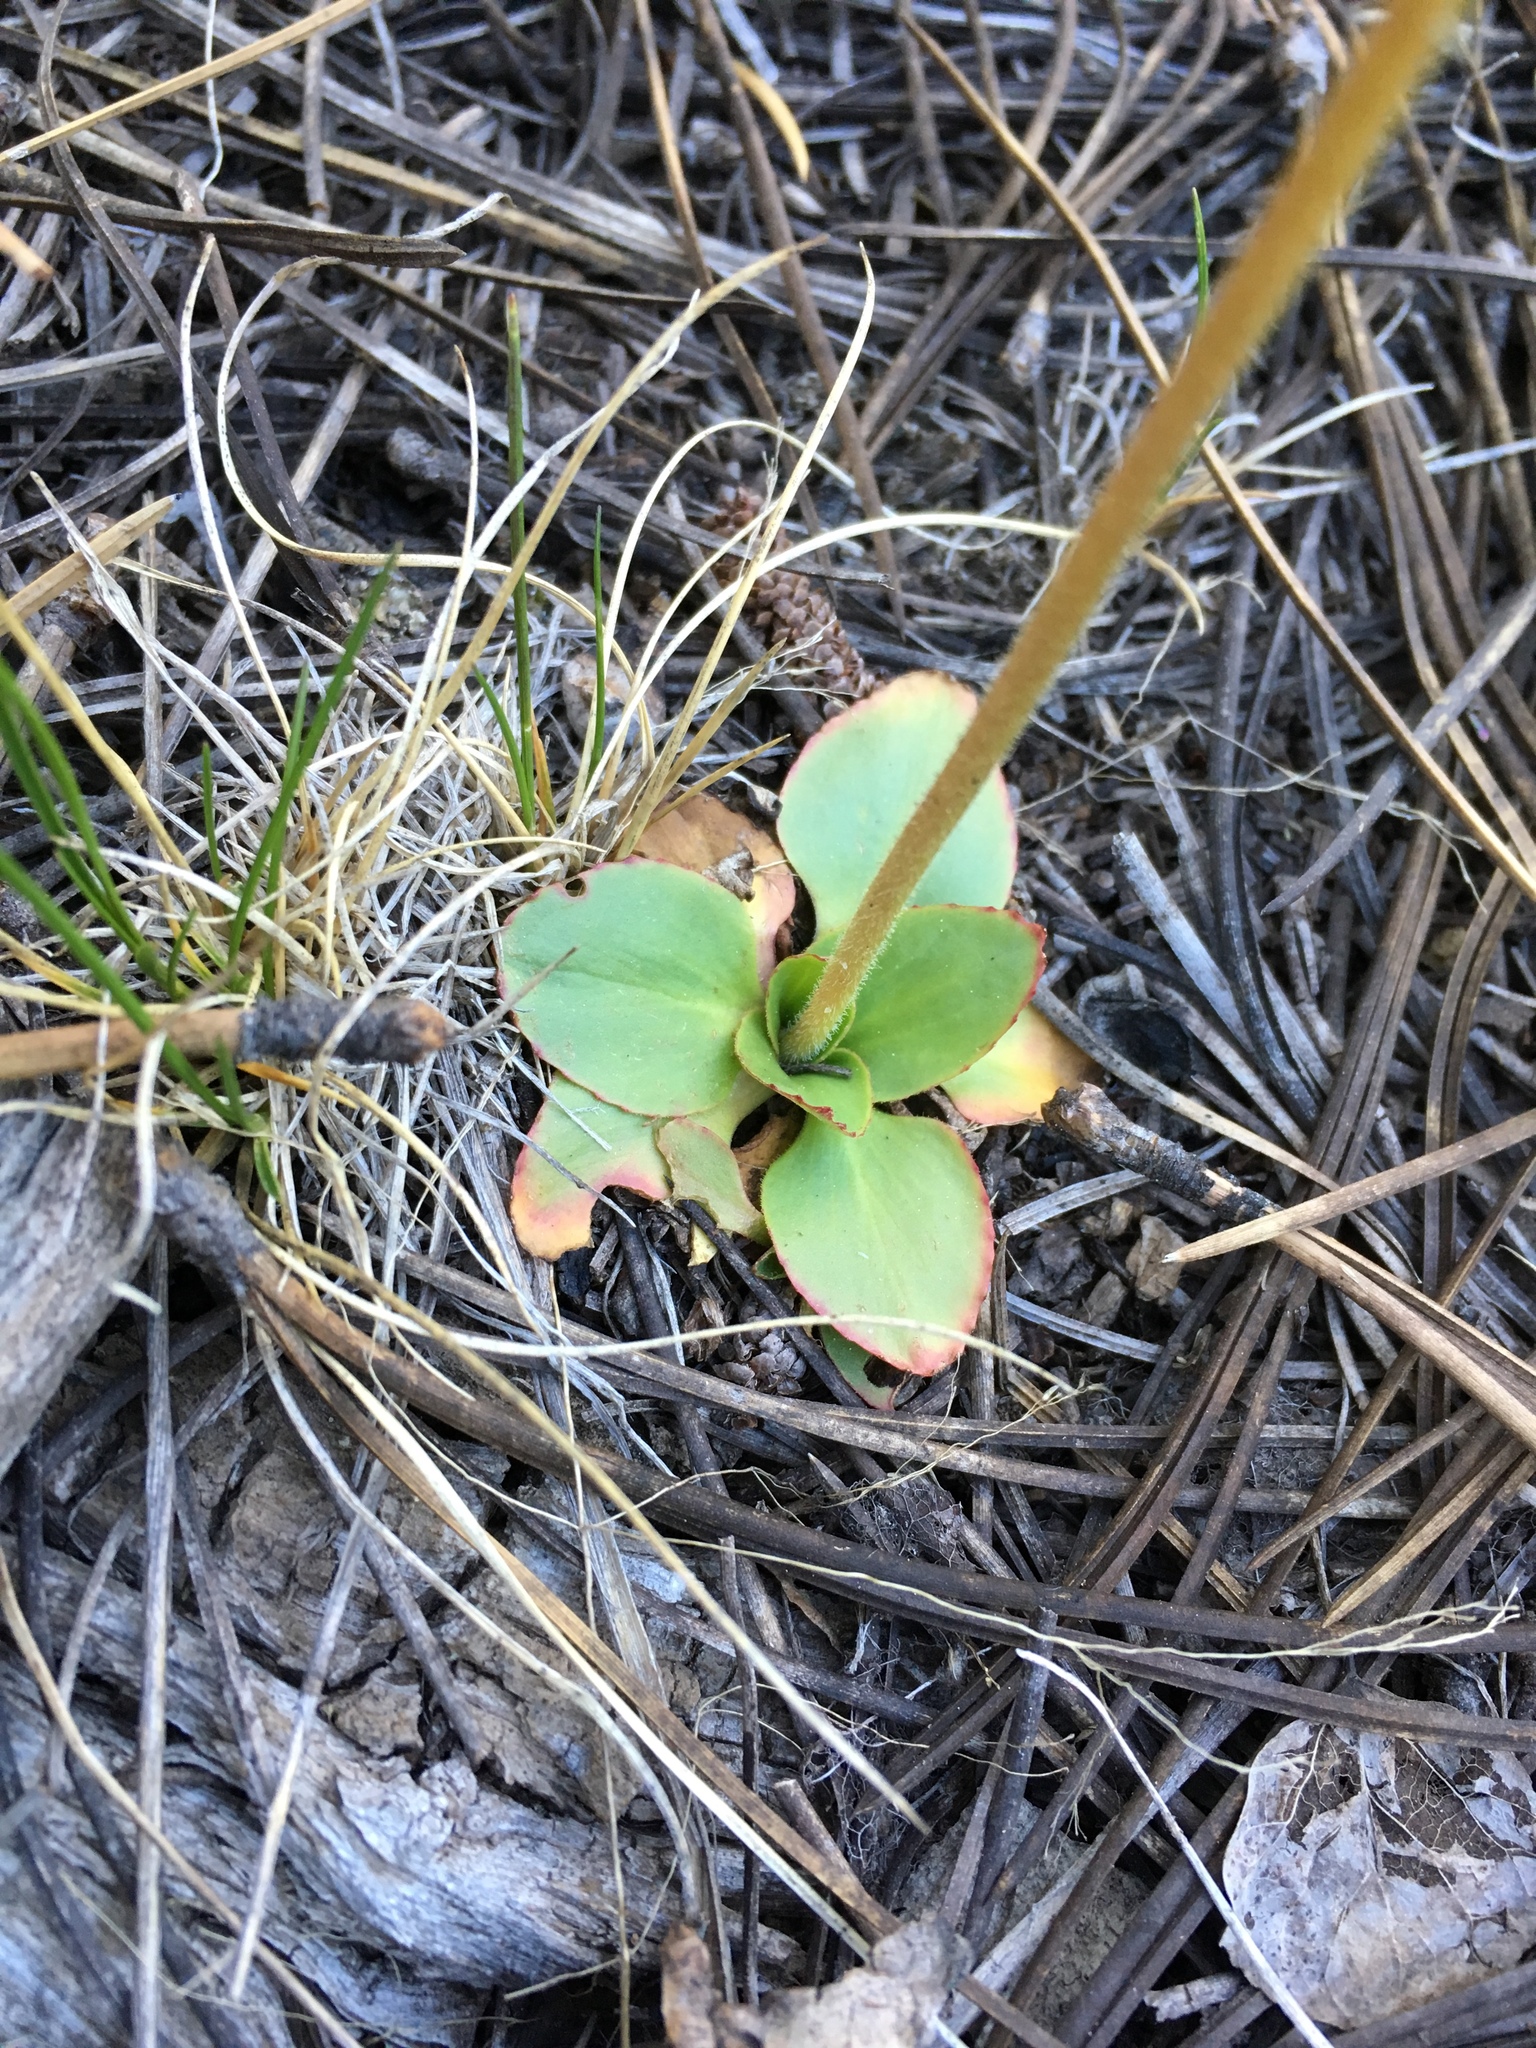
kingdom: Plantae
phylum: Tracheophyta
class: Magnoliopsida
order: Saxifragales
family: Saxifragaceae
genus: Micranthes
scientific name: Micranthes rhomboidea
